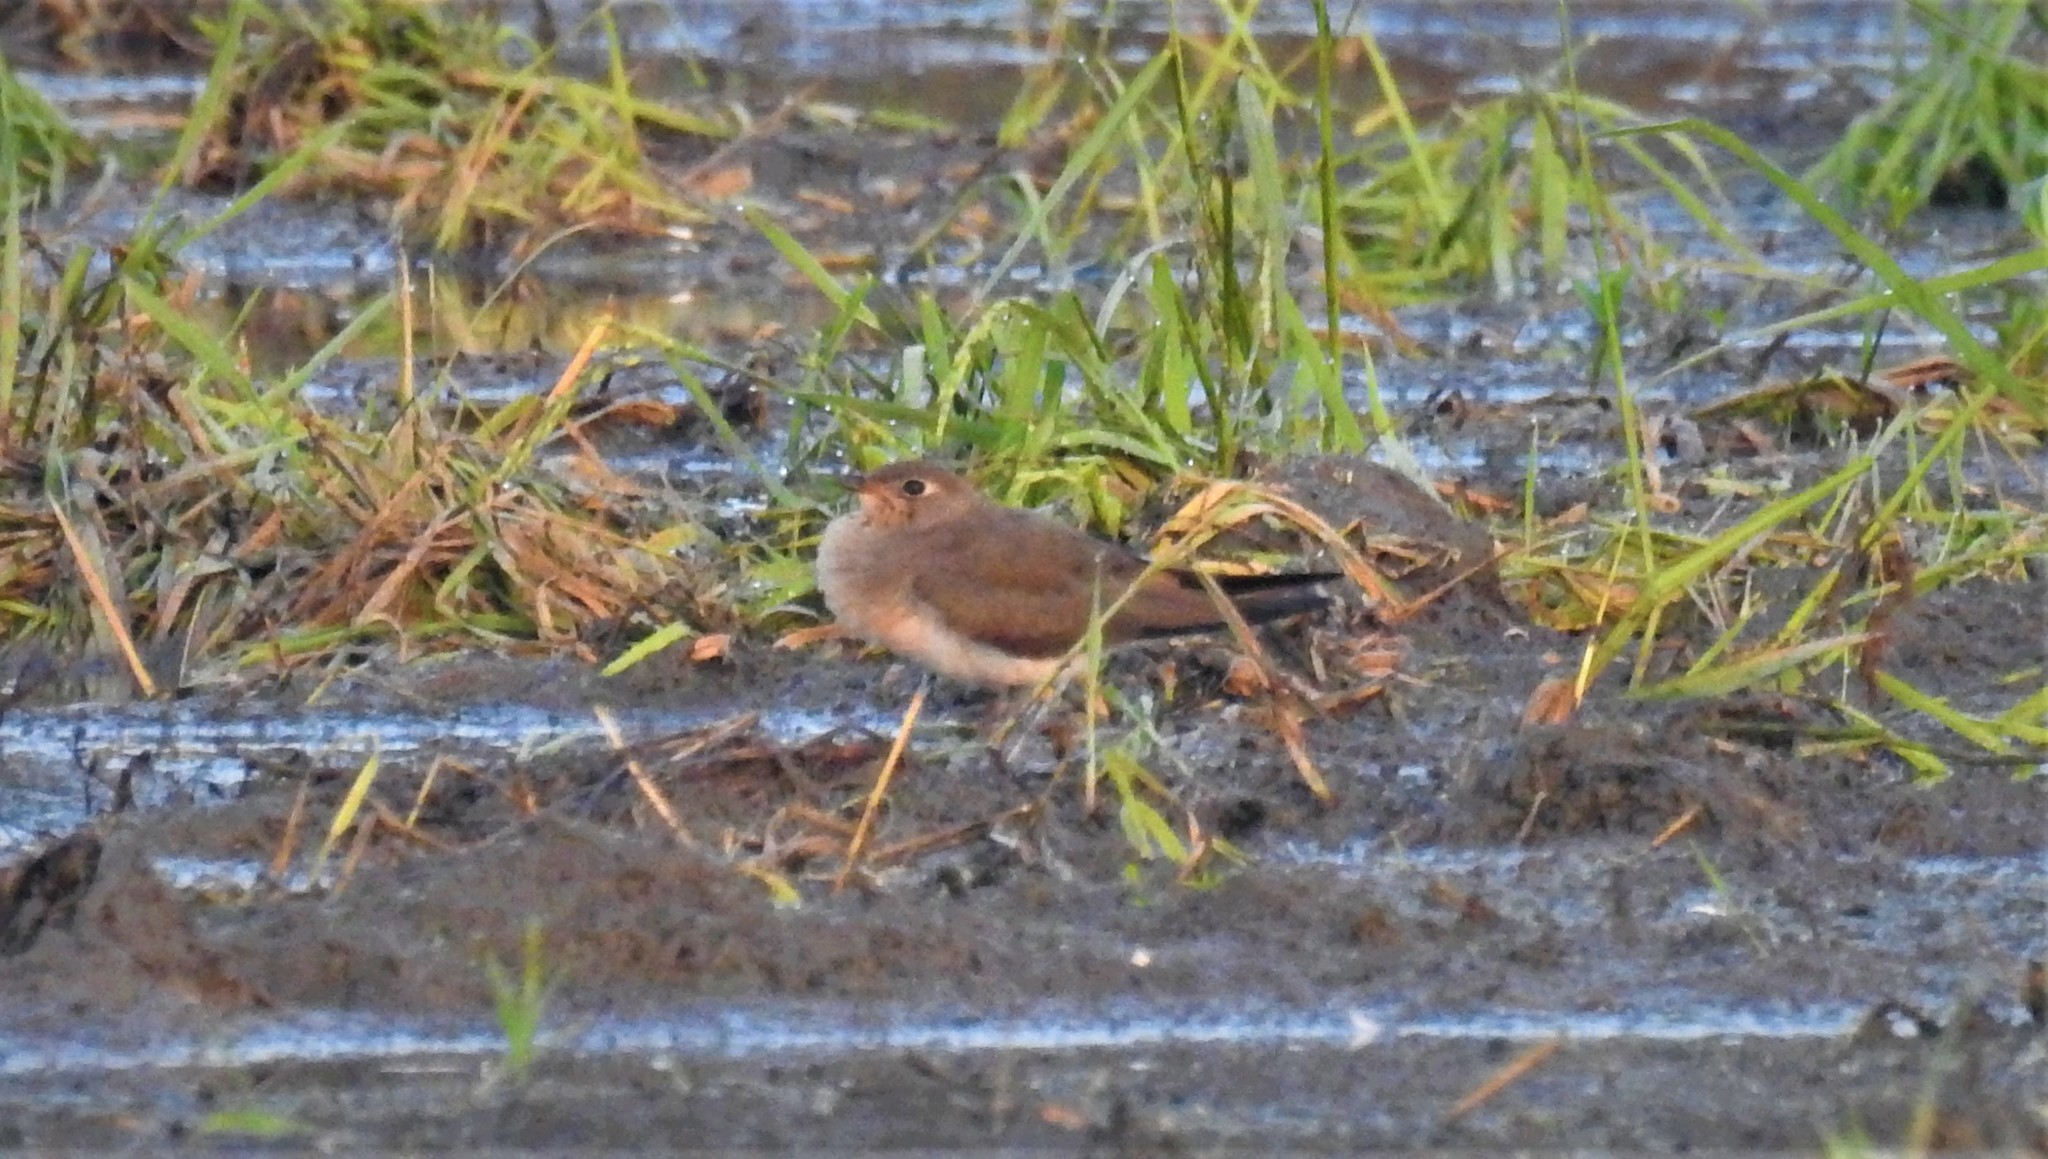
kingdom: Animalia
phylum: Chordata
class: Aves
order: Charadriiformes
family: Glareolidae
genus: Glareola
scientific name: Glareola maldivarum
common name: Oriental pratincole
